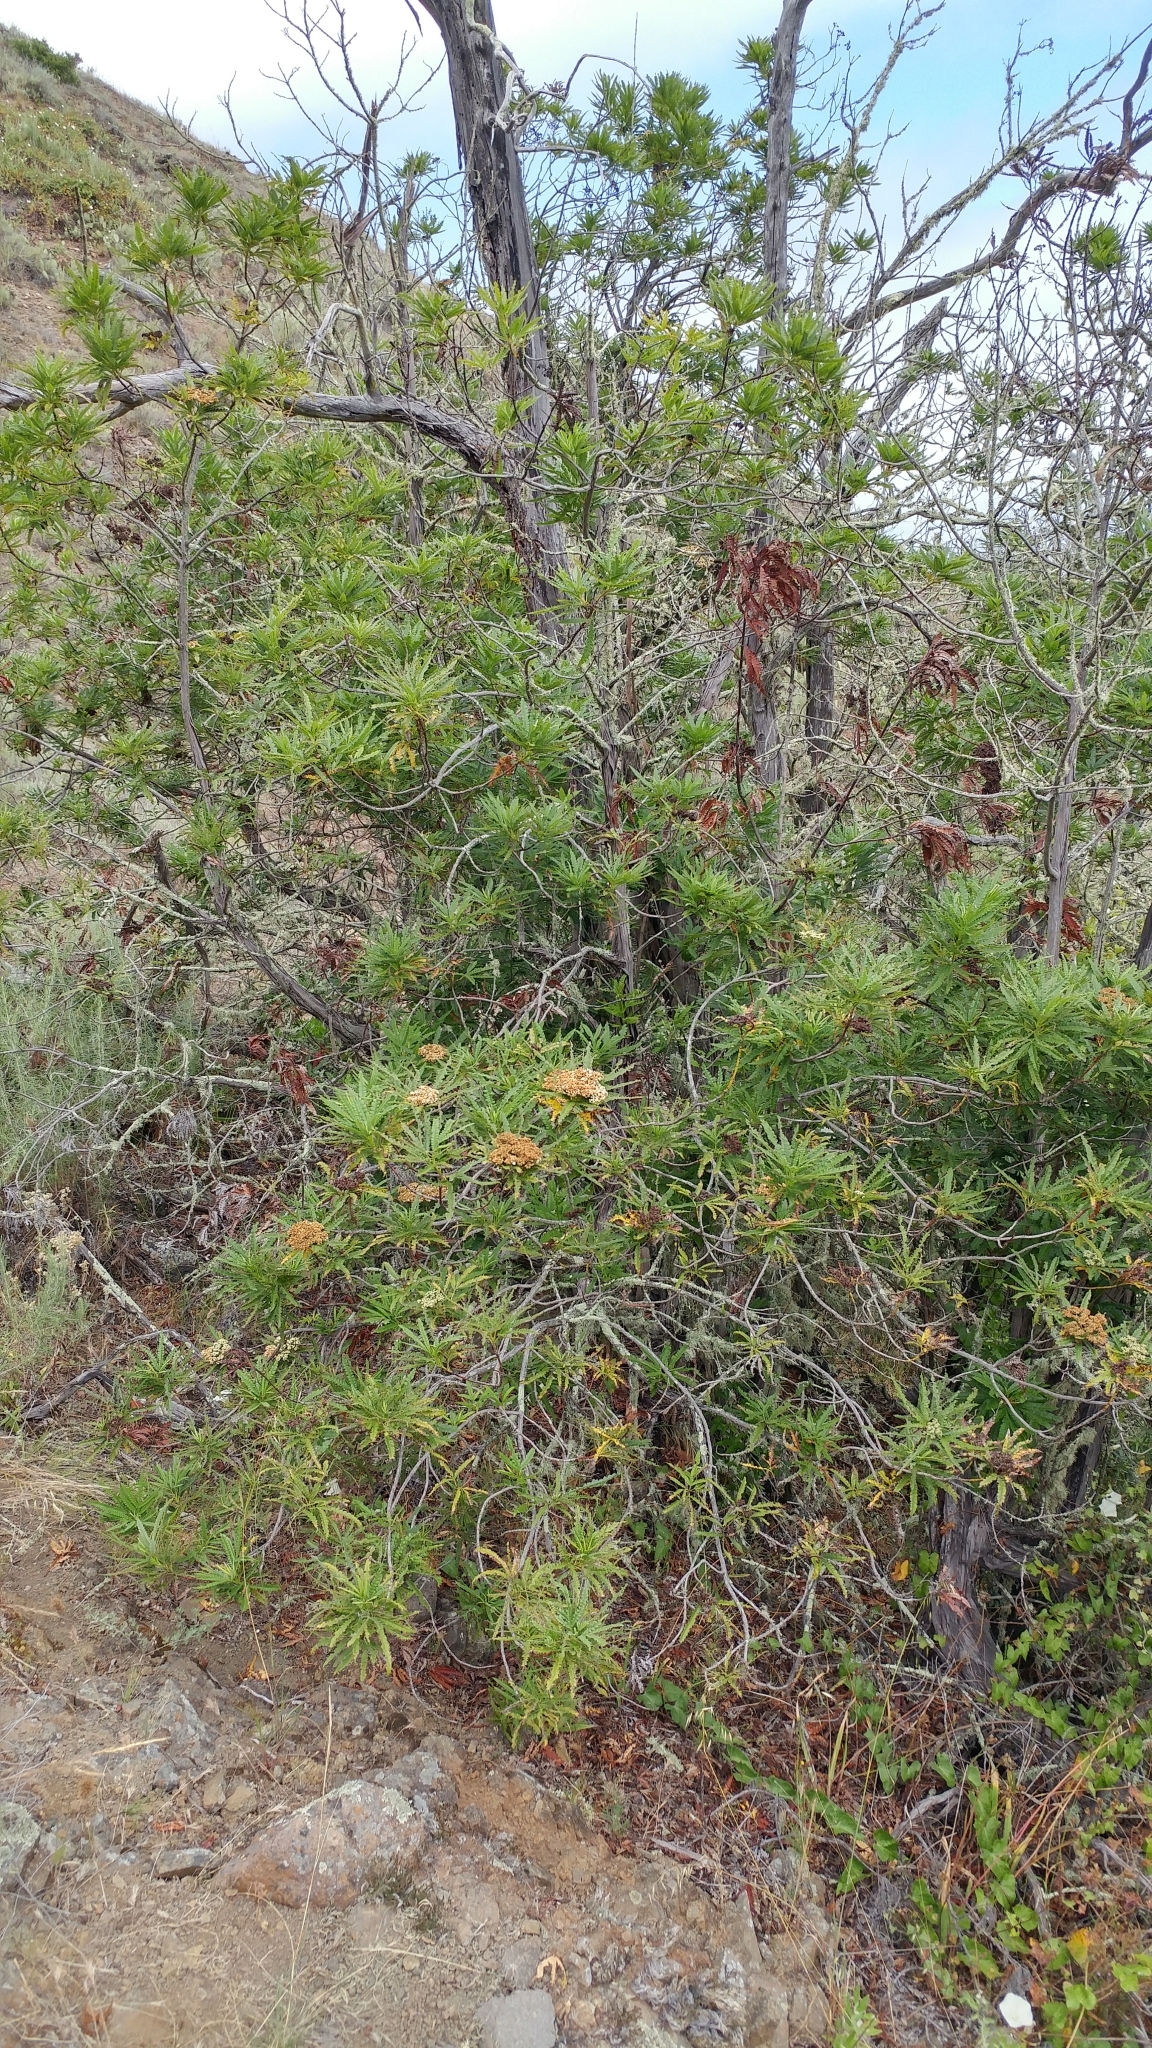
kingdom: Plantae
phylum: Tracheophyta
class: Magnoliopsida
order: Rosales
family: Rosaceae
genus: Lyonothamnus
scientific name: Lyonothamnus floribundus
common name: Catalina ironwood
